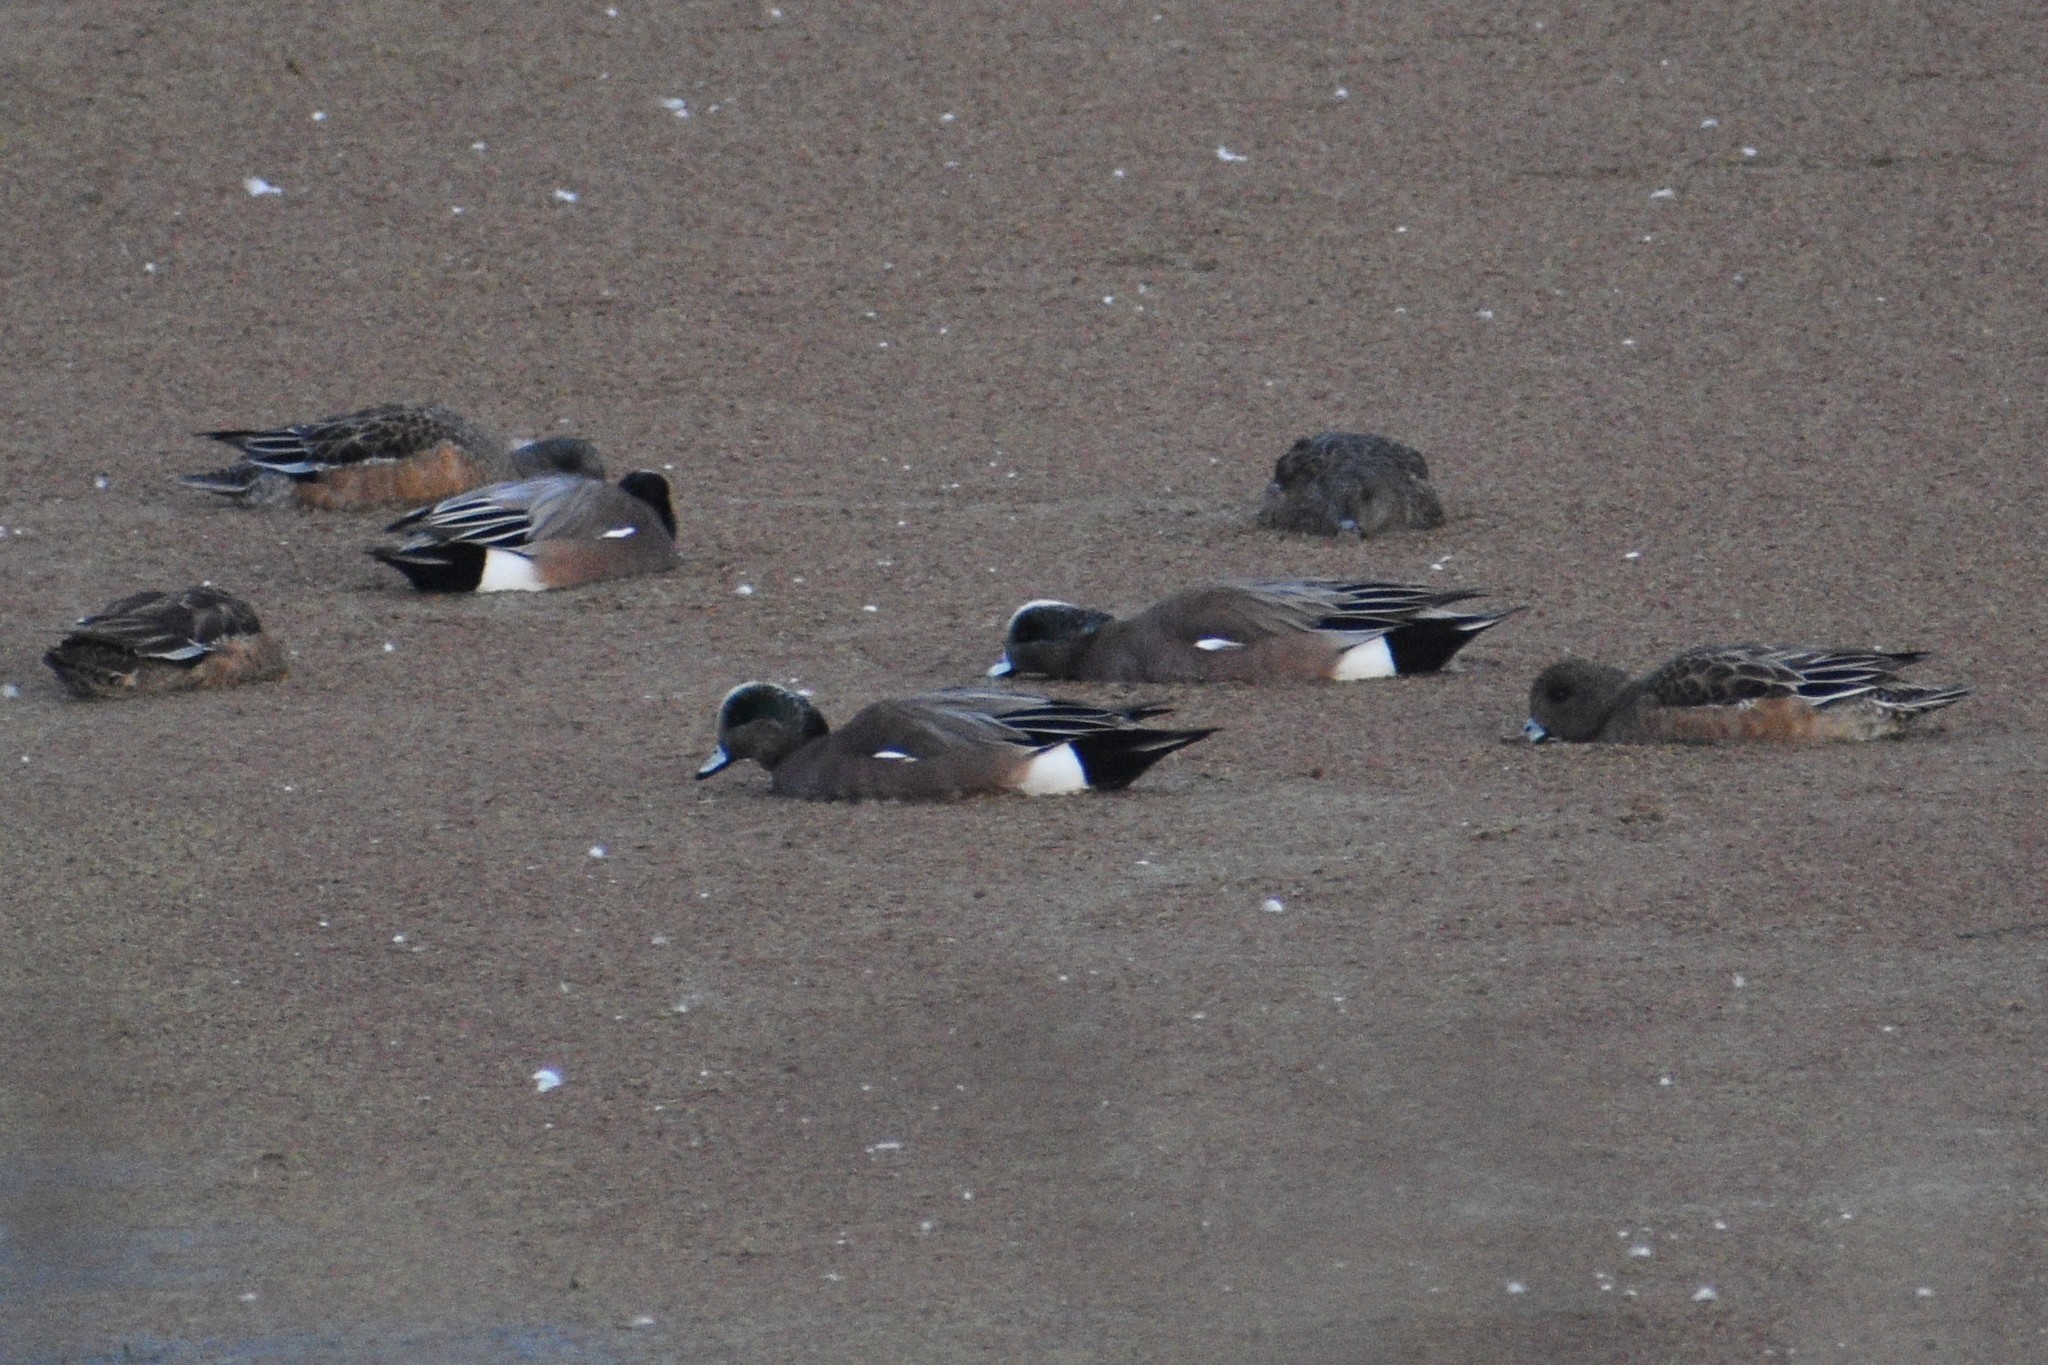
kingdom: Animalia
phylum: Chordata
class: Aves
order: Anseriformes
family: Anatidae
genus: Mareca
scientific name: Mareca americana
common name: American wigeon
